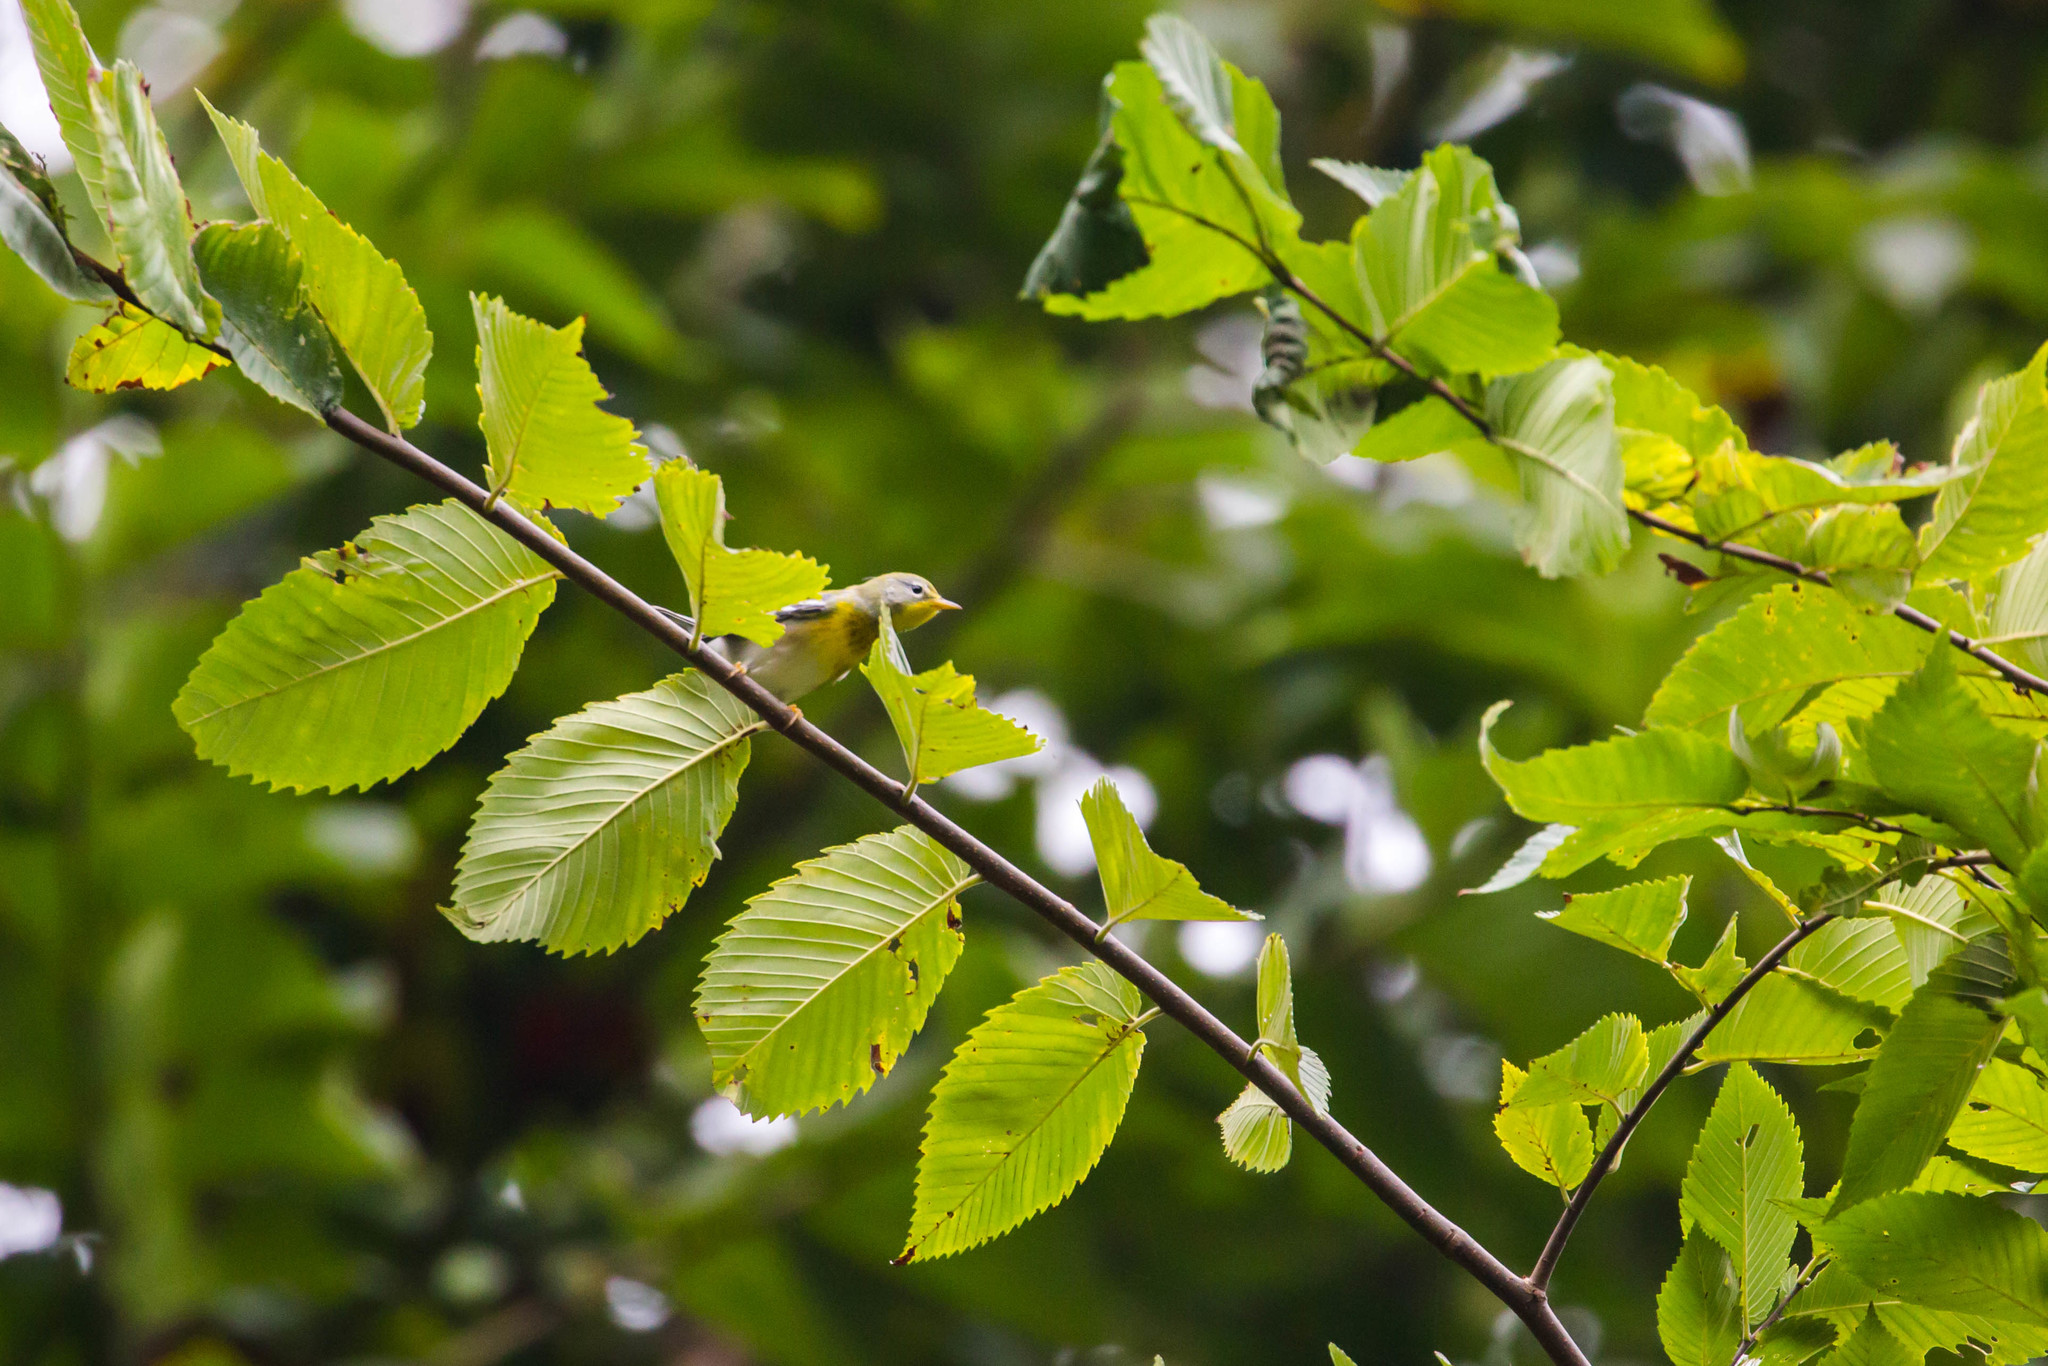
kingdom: Animalia
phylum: Chordata
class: Aves
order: Passeriformes
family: Parulidae
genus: Setophaga
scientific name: Setophaga americana
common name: Northern parula
